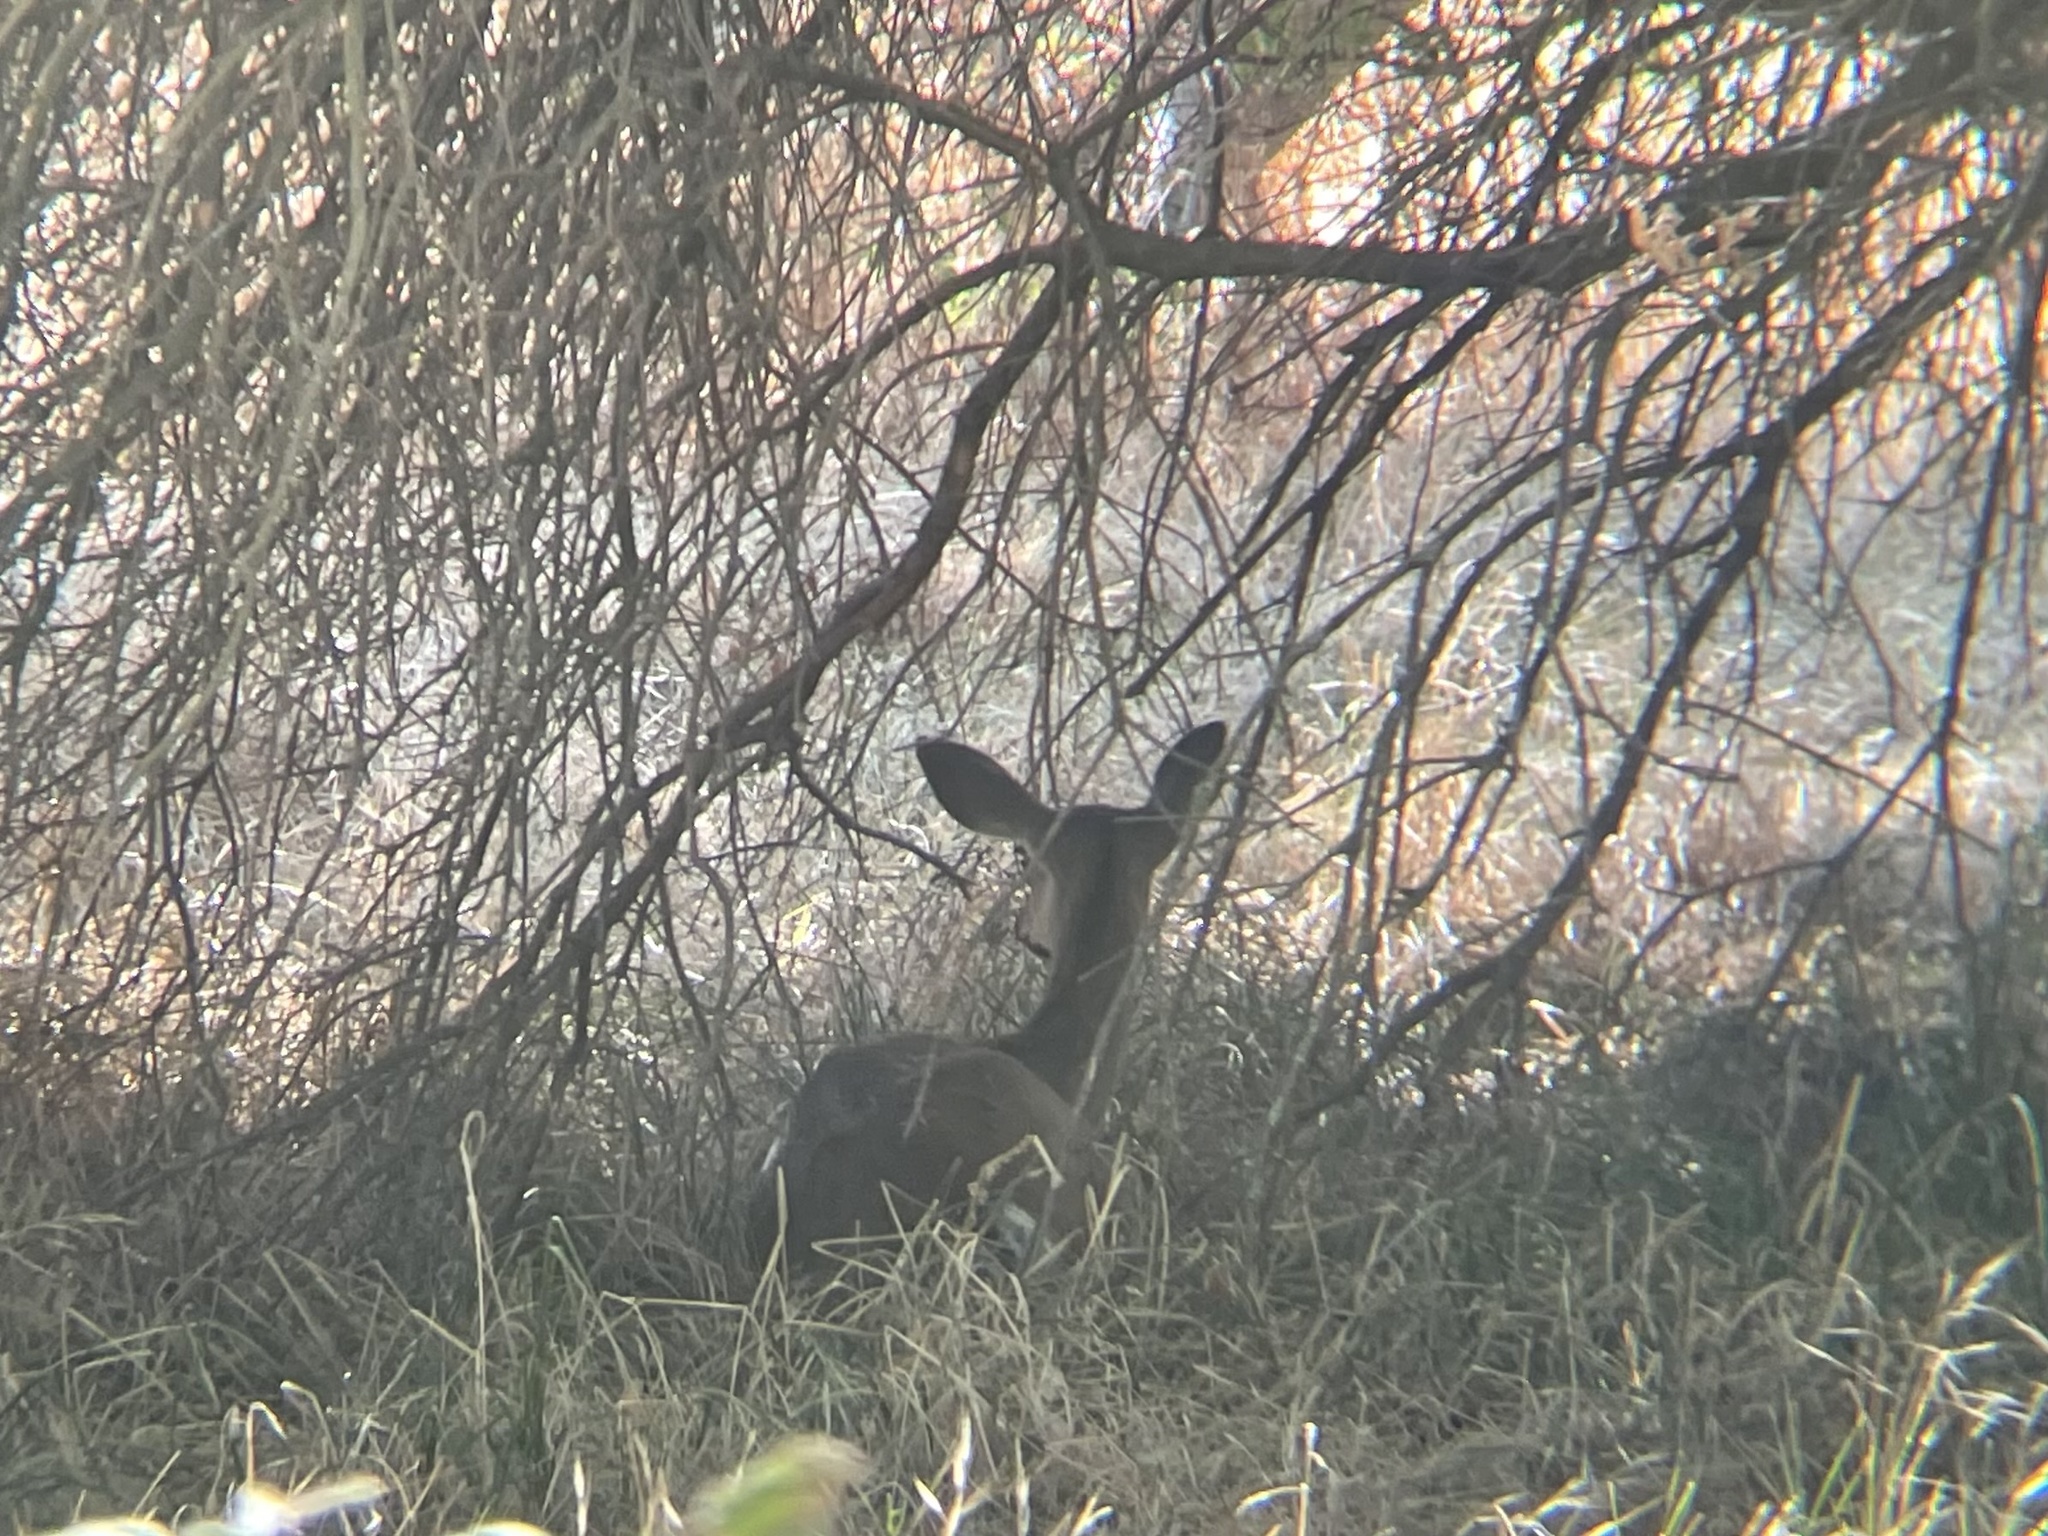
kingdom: Animalia
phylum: Chordata
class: Mammalia
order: Artiodactyla
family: Cervidae
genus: Odocoileus
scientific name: Odocoileus hemionus
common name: Mule deer
